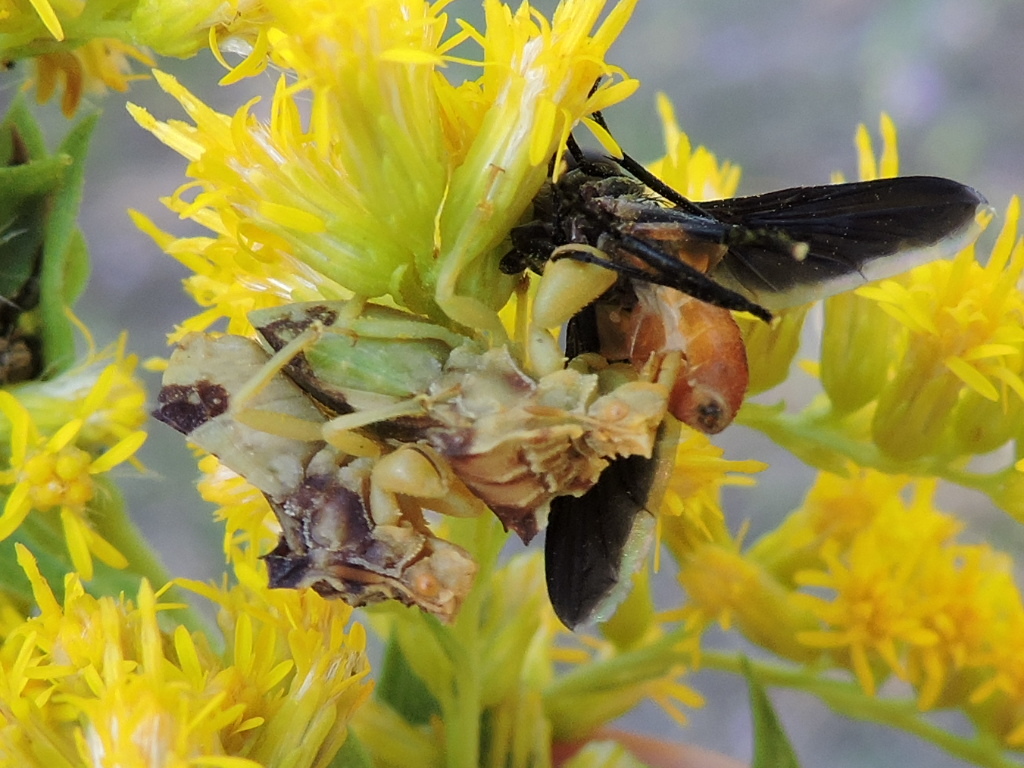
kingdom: Animalia
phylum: Arthropoda
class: Insecta
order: Diptera
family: Tachinidae
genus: Trichopoda
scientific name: Trichopoda pennipes
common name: Tachinid fly
